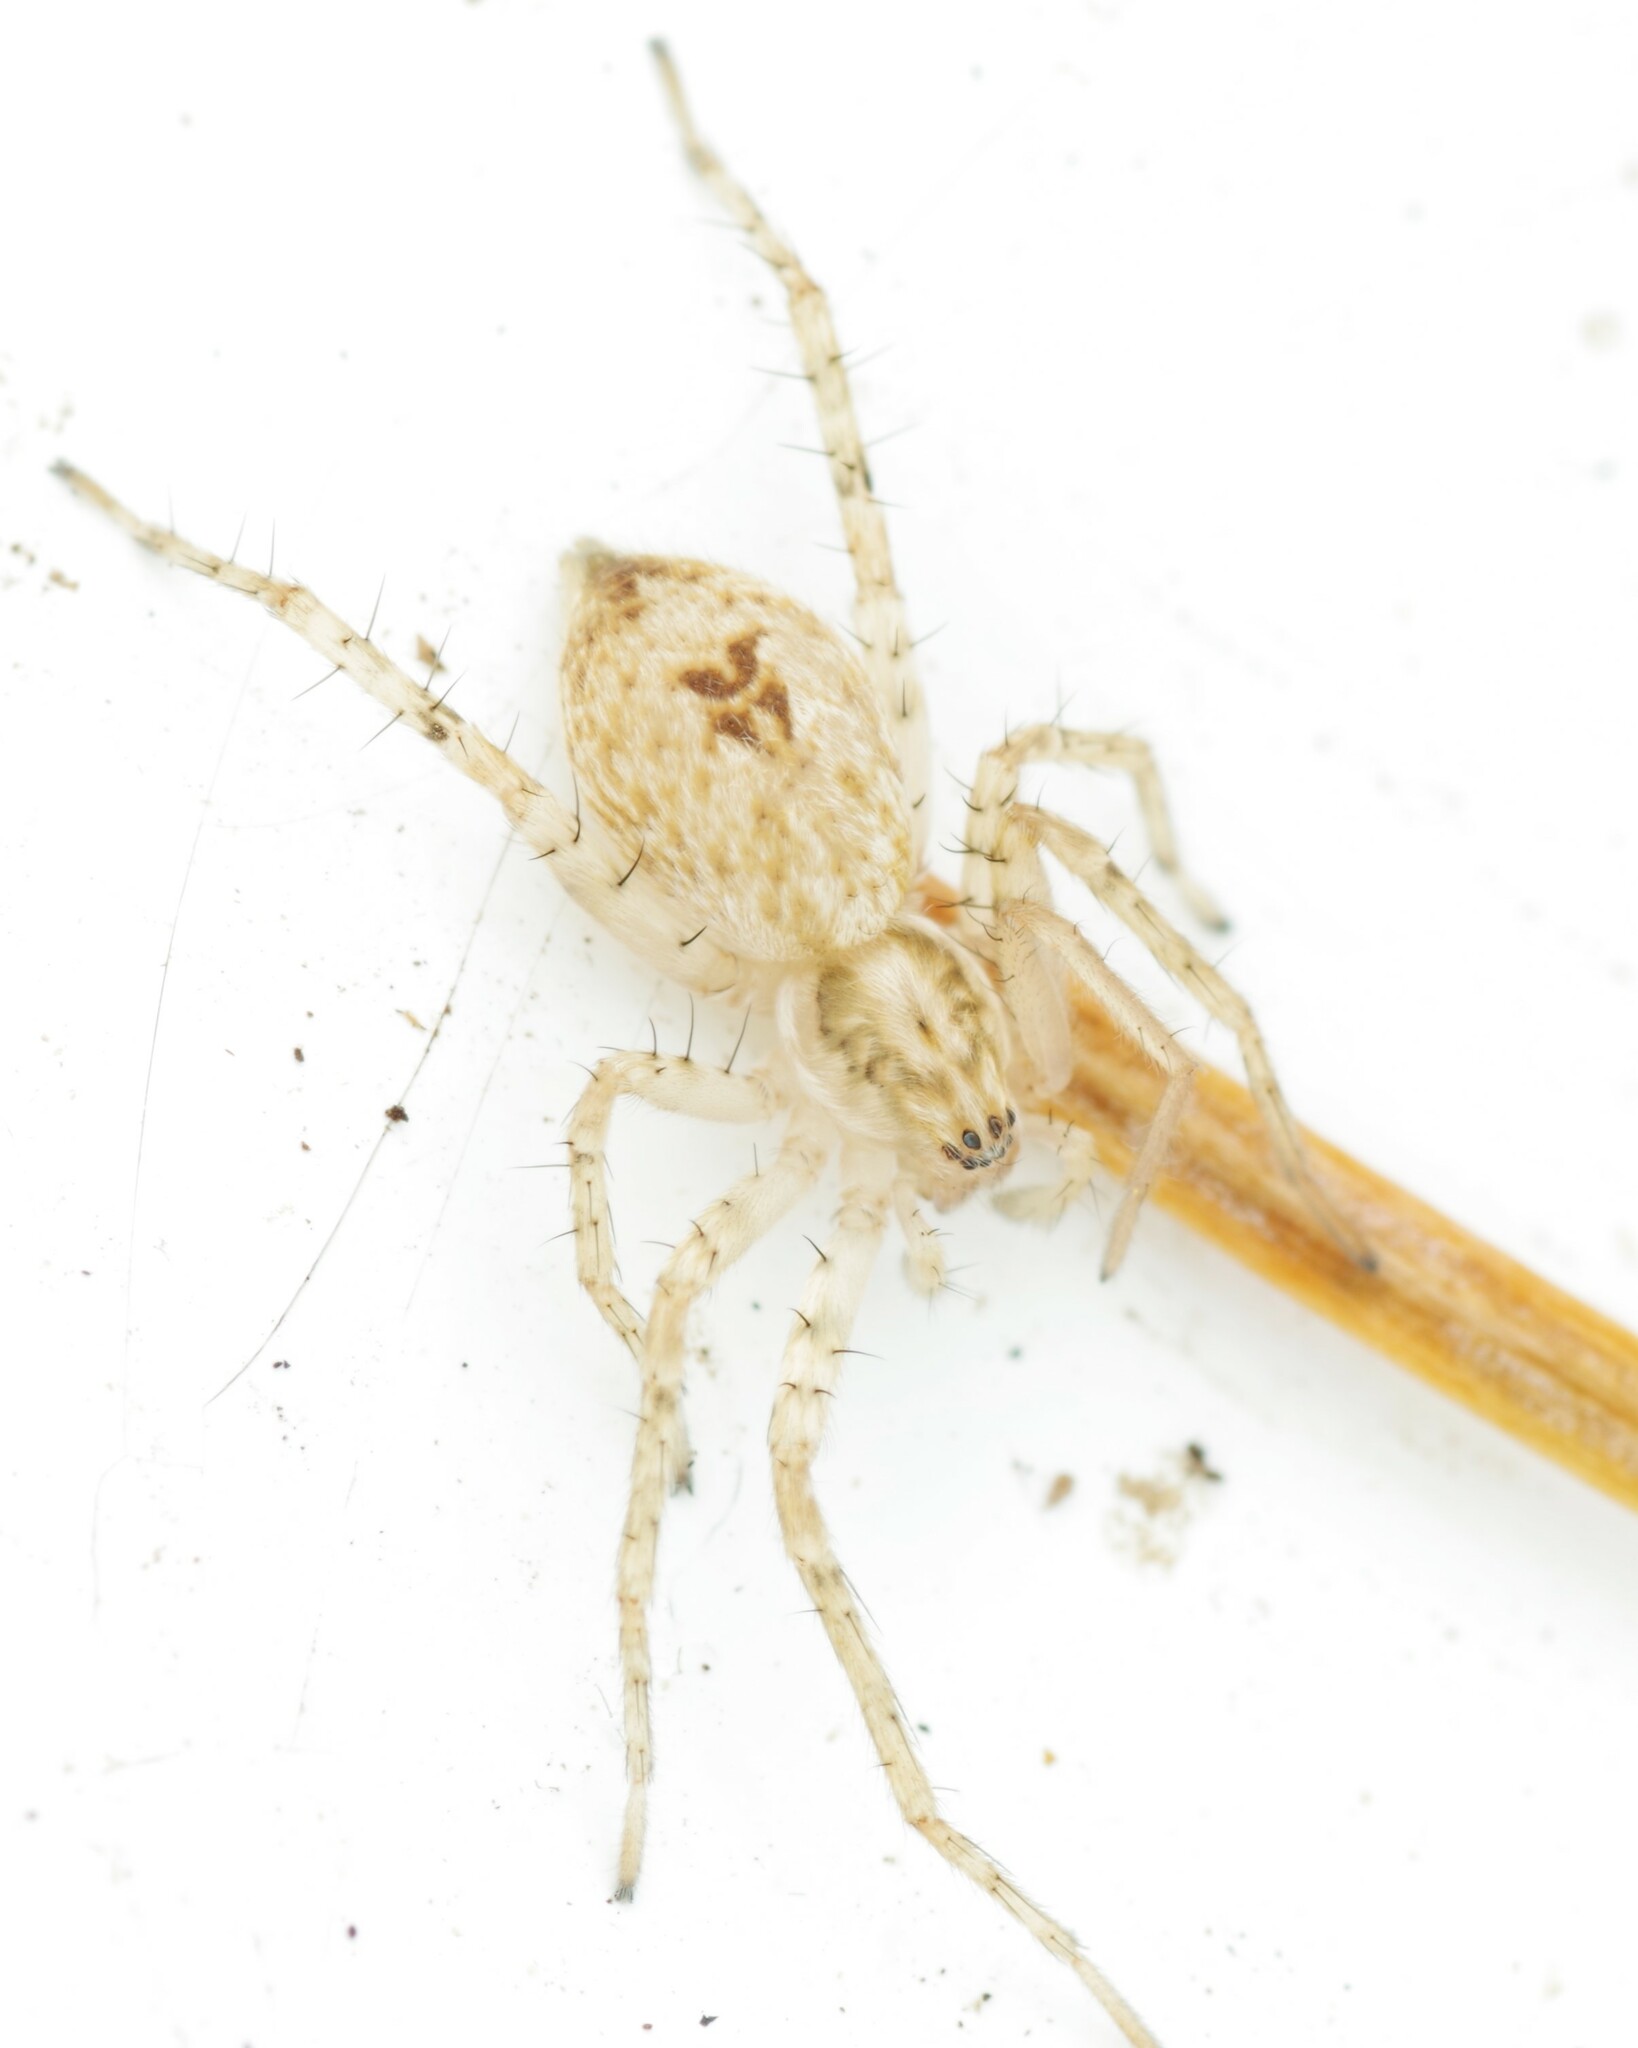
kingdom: Animalia
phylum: Arthropoda
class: Arachnida
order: Araneae
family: Anyphaenidae
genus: Anyphaena
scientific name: Anyphaena accentuata
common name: Buzzing spider
